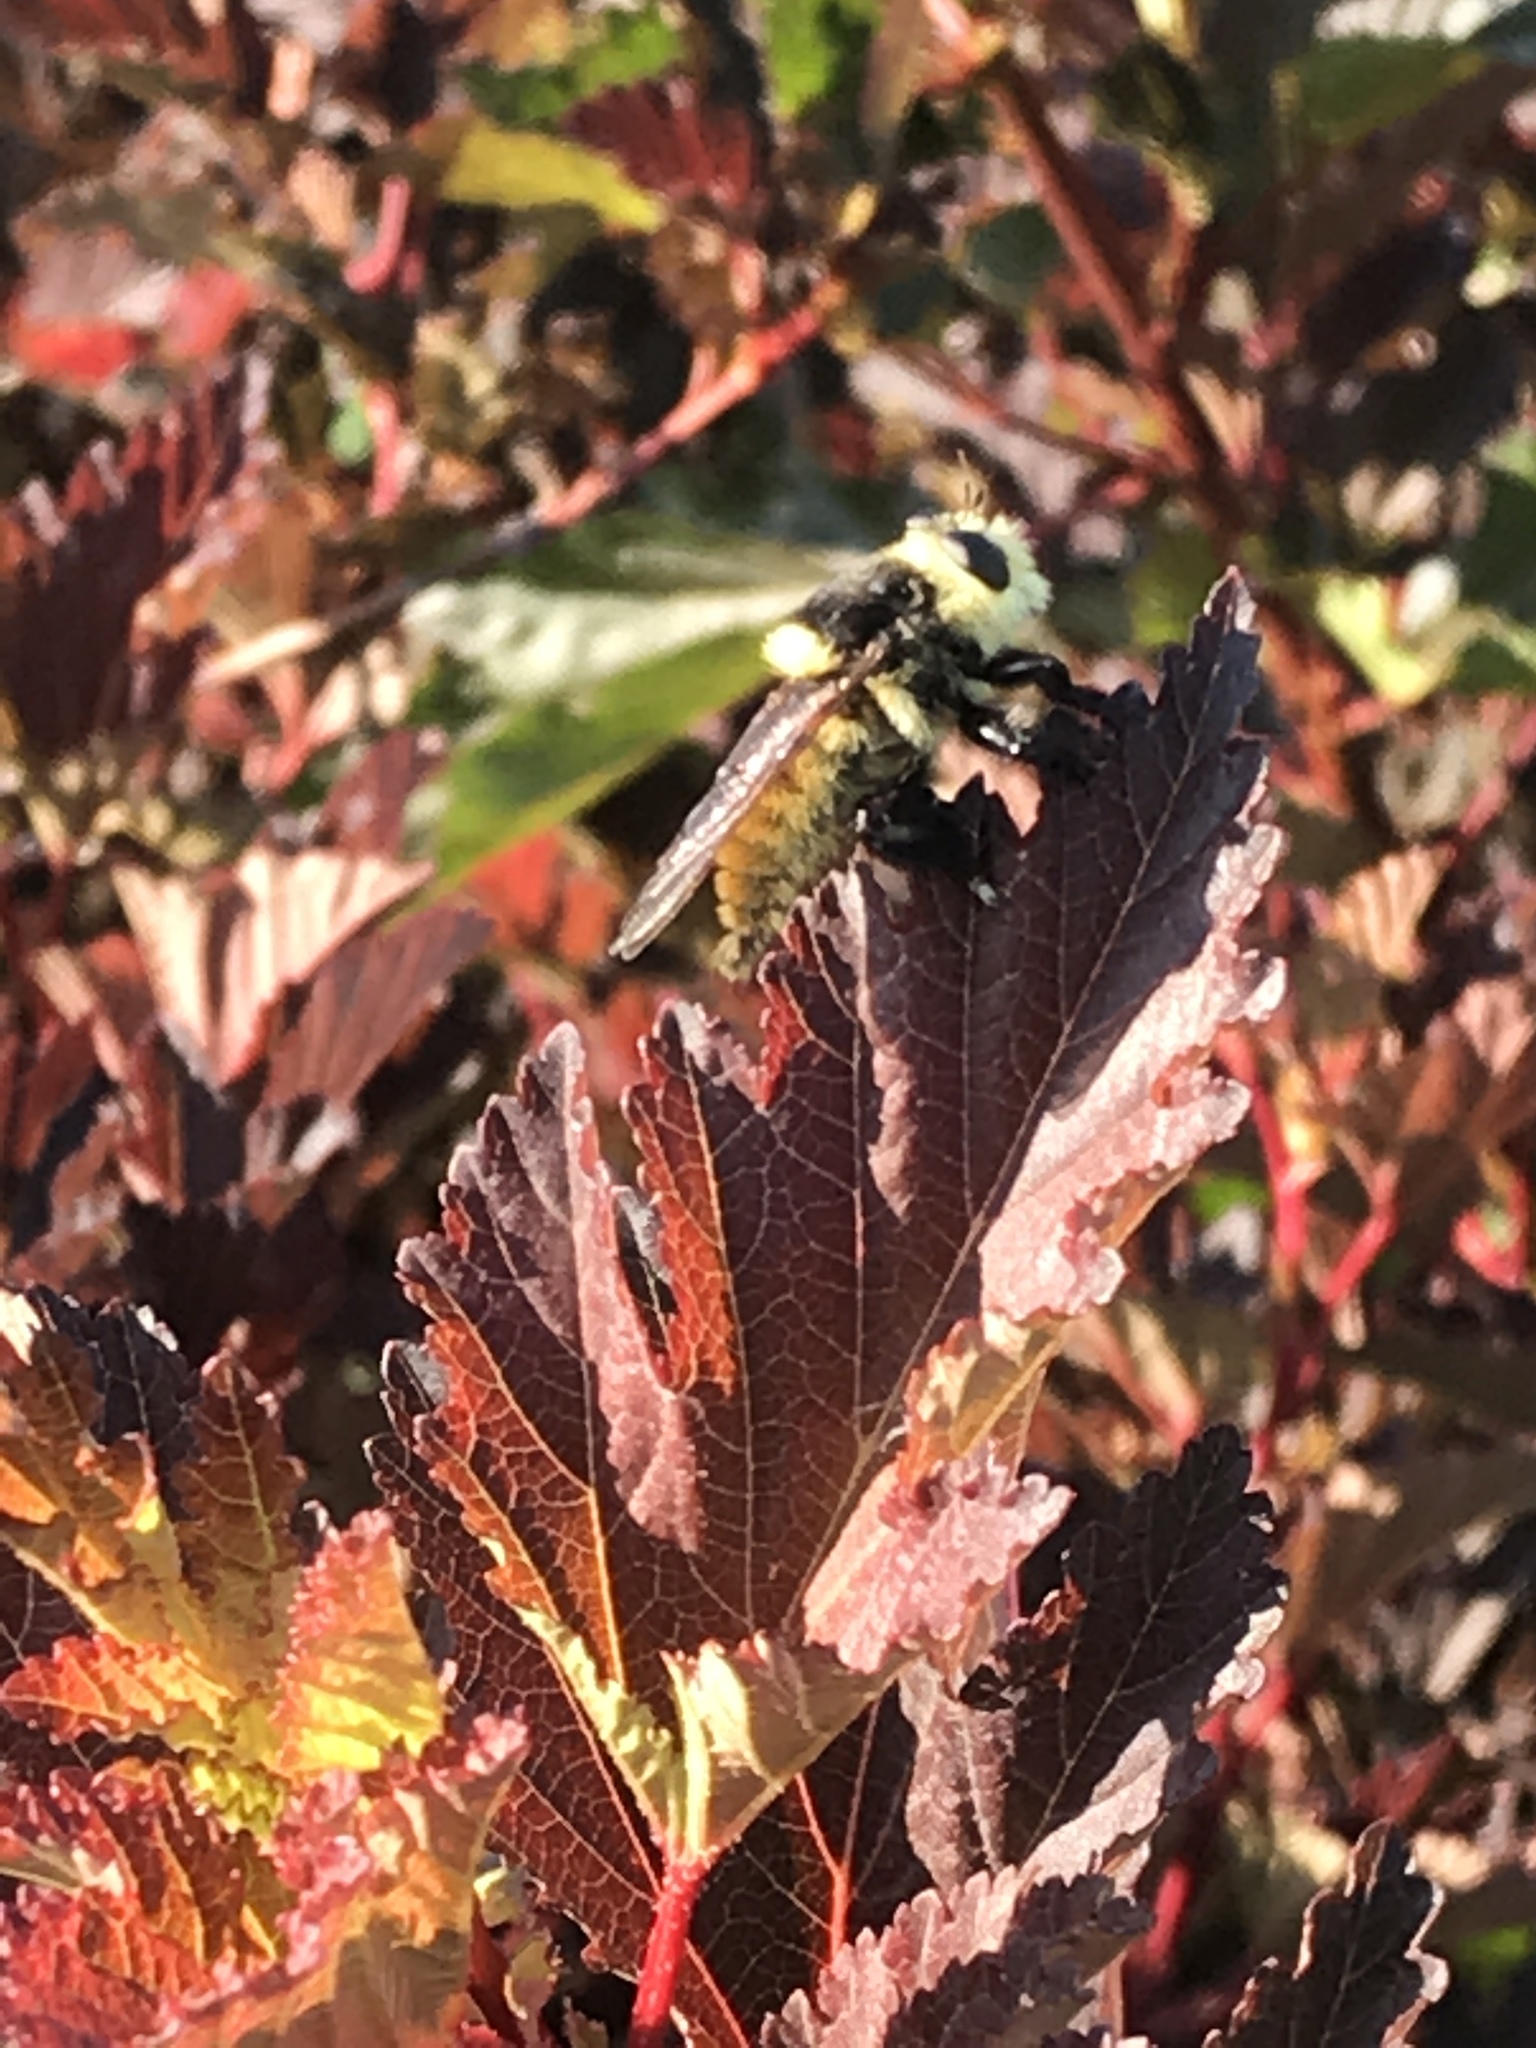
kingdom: Animalia
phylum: Arthropoda
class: Insecta
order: Diptera
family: Asilidae
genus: Mallophora
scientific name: Mallophora fautrix
